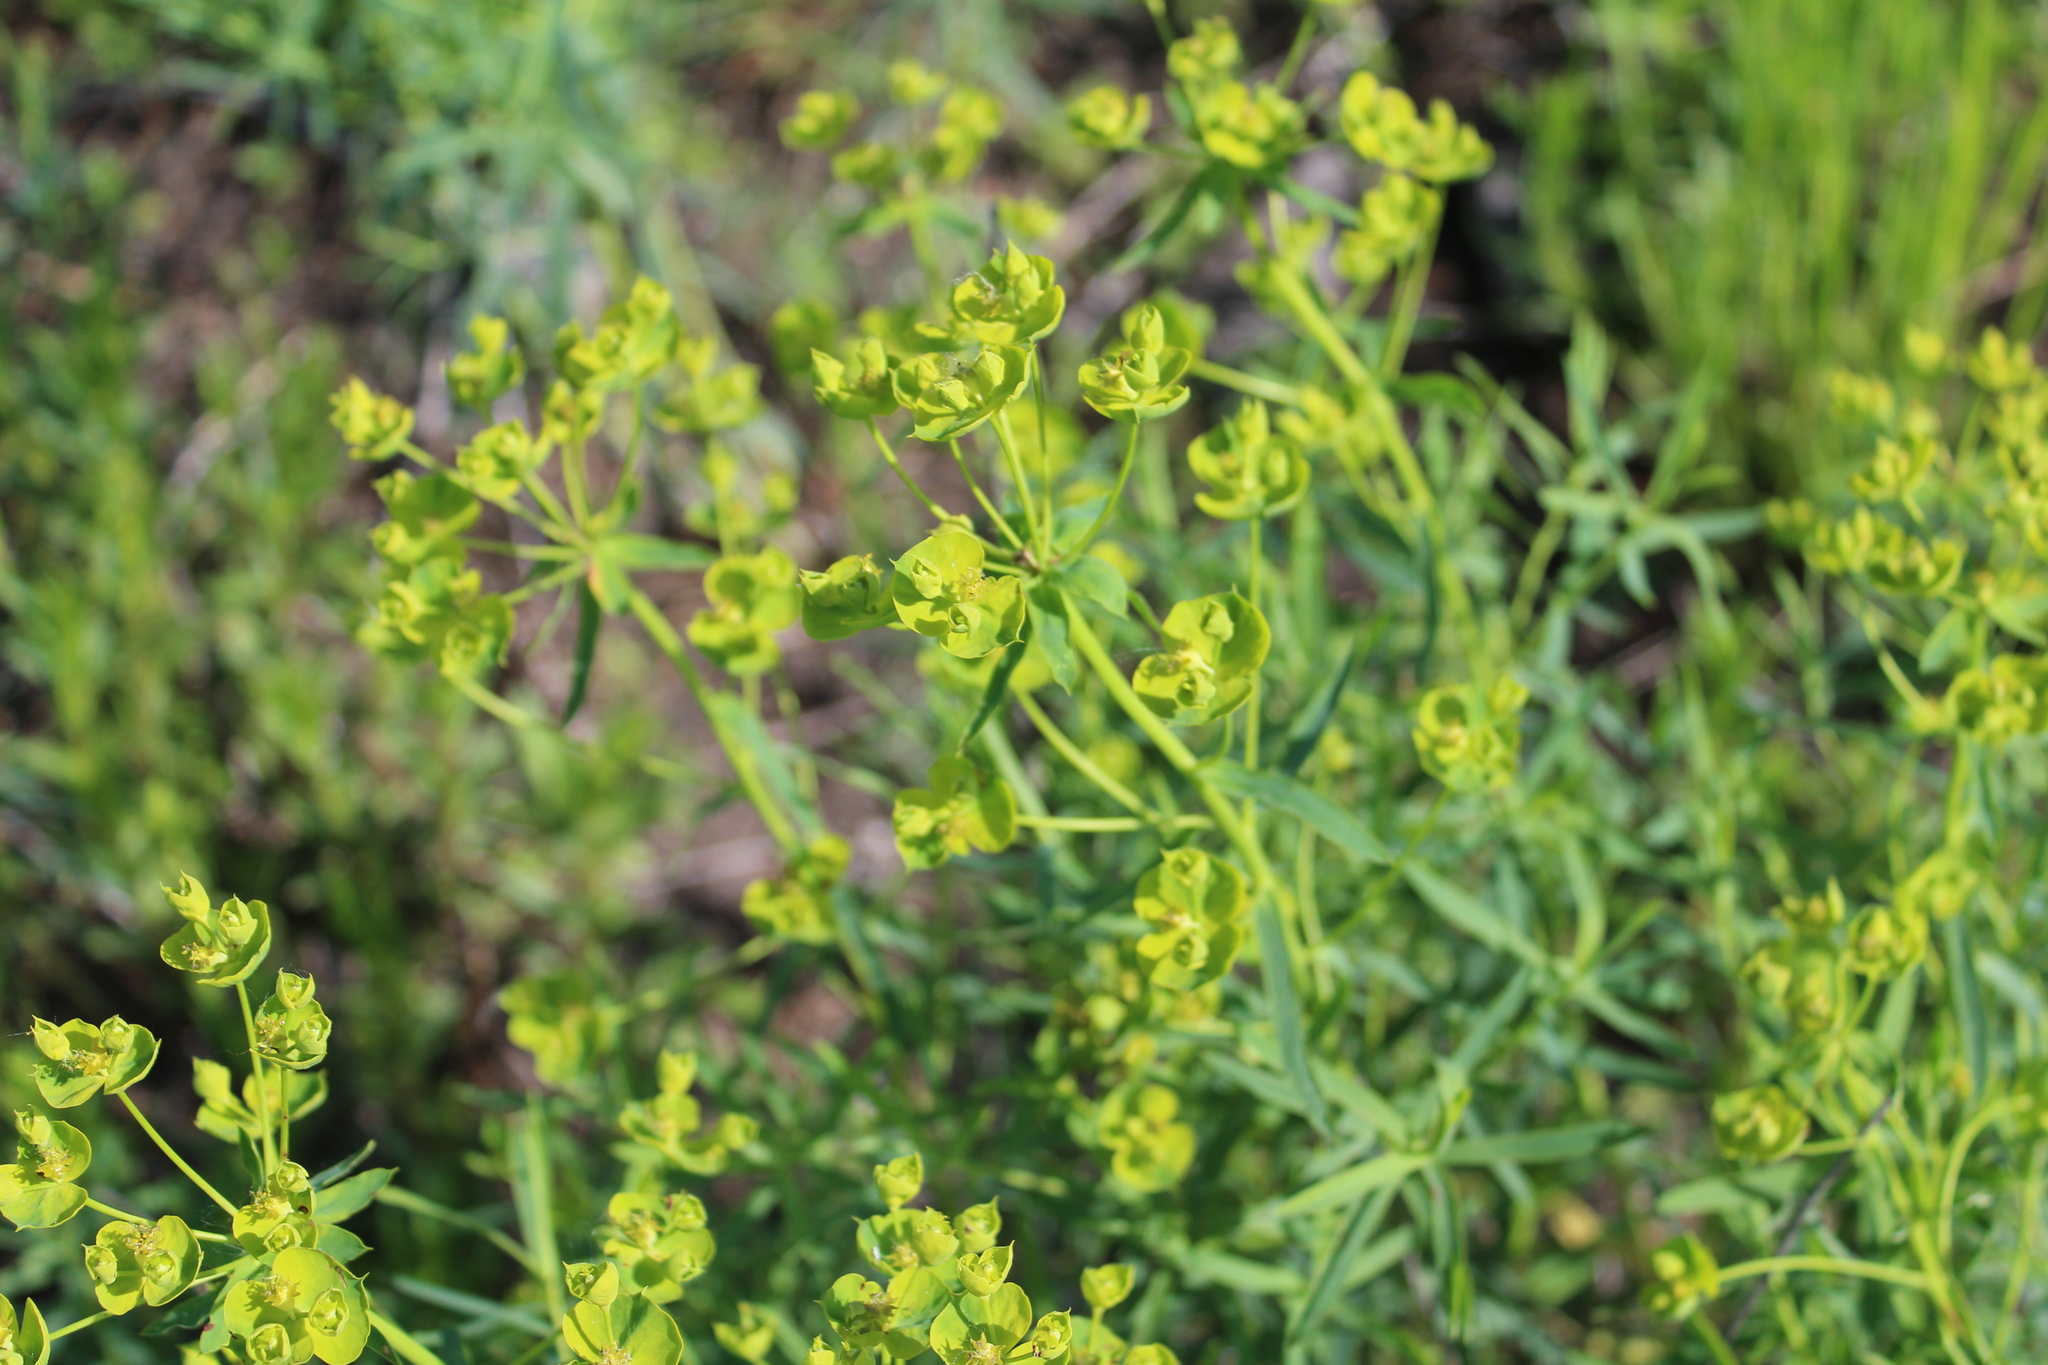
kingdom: Plantae
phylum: Tracheophyta
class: Magnoliopsida
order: Malpighiales
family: Euphorbiaceae
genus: Euphorbia
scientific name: Euphorbia virgata
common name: Leafy spurge
